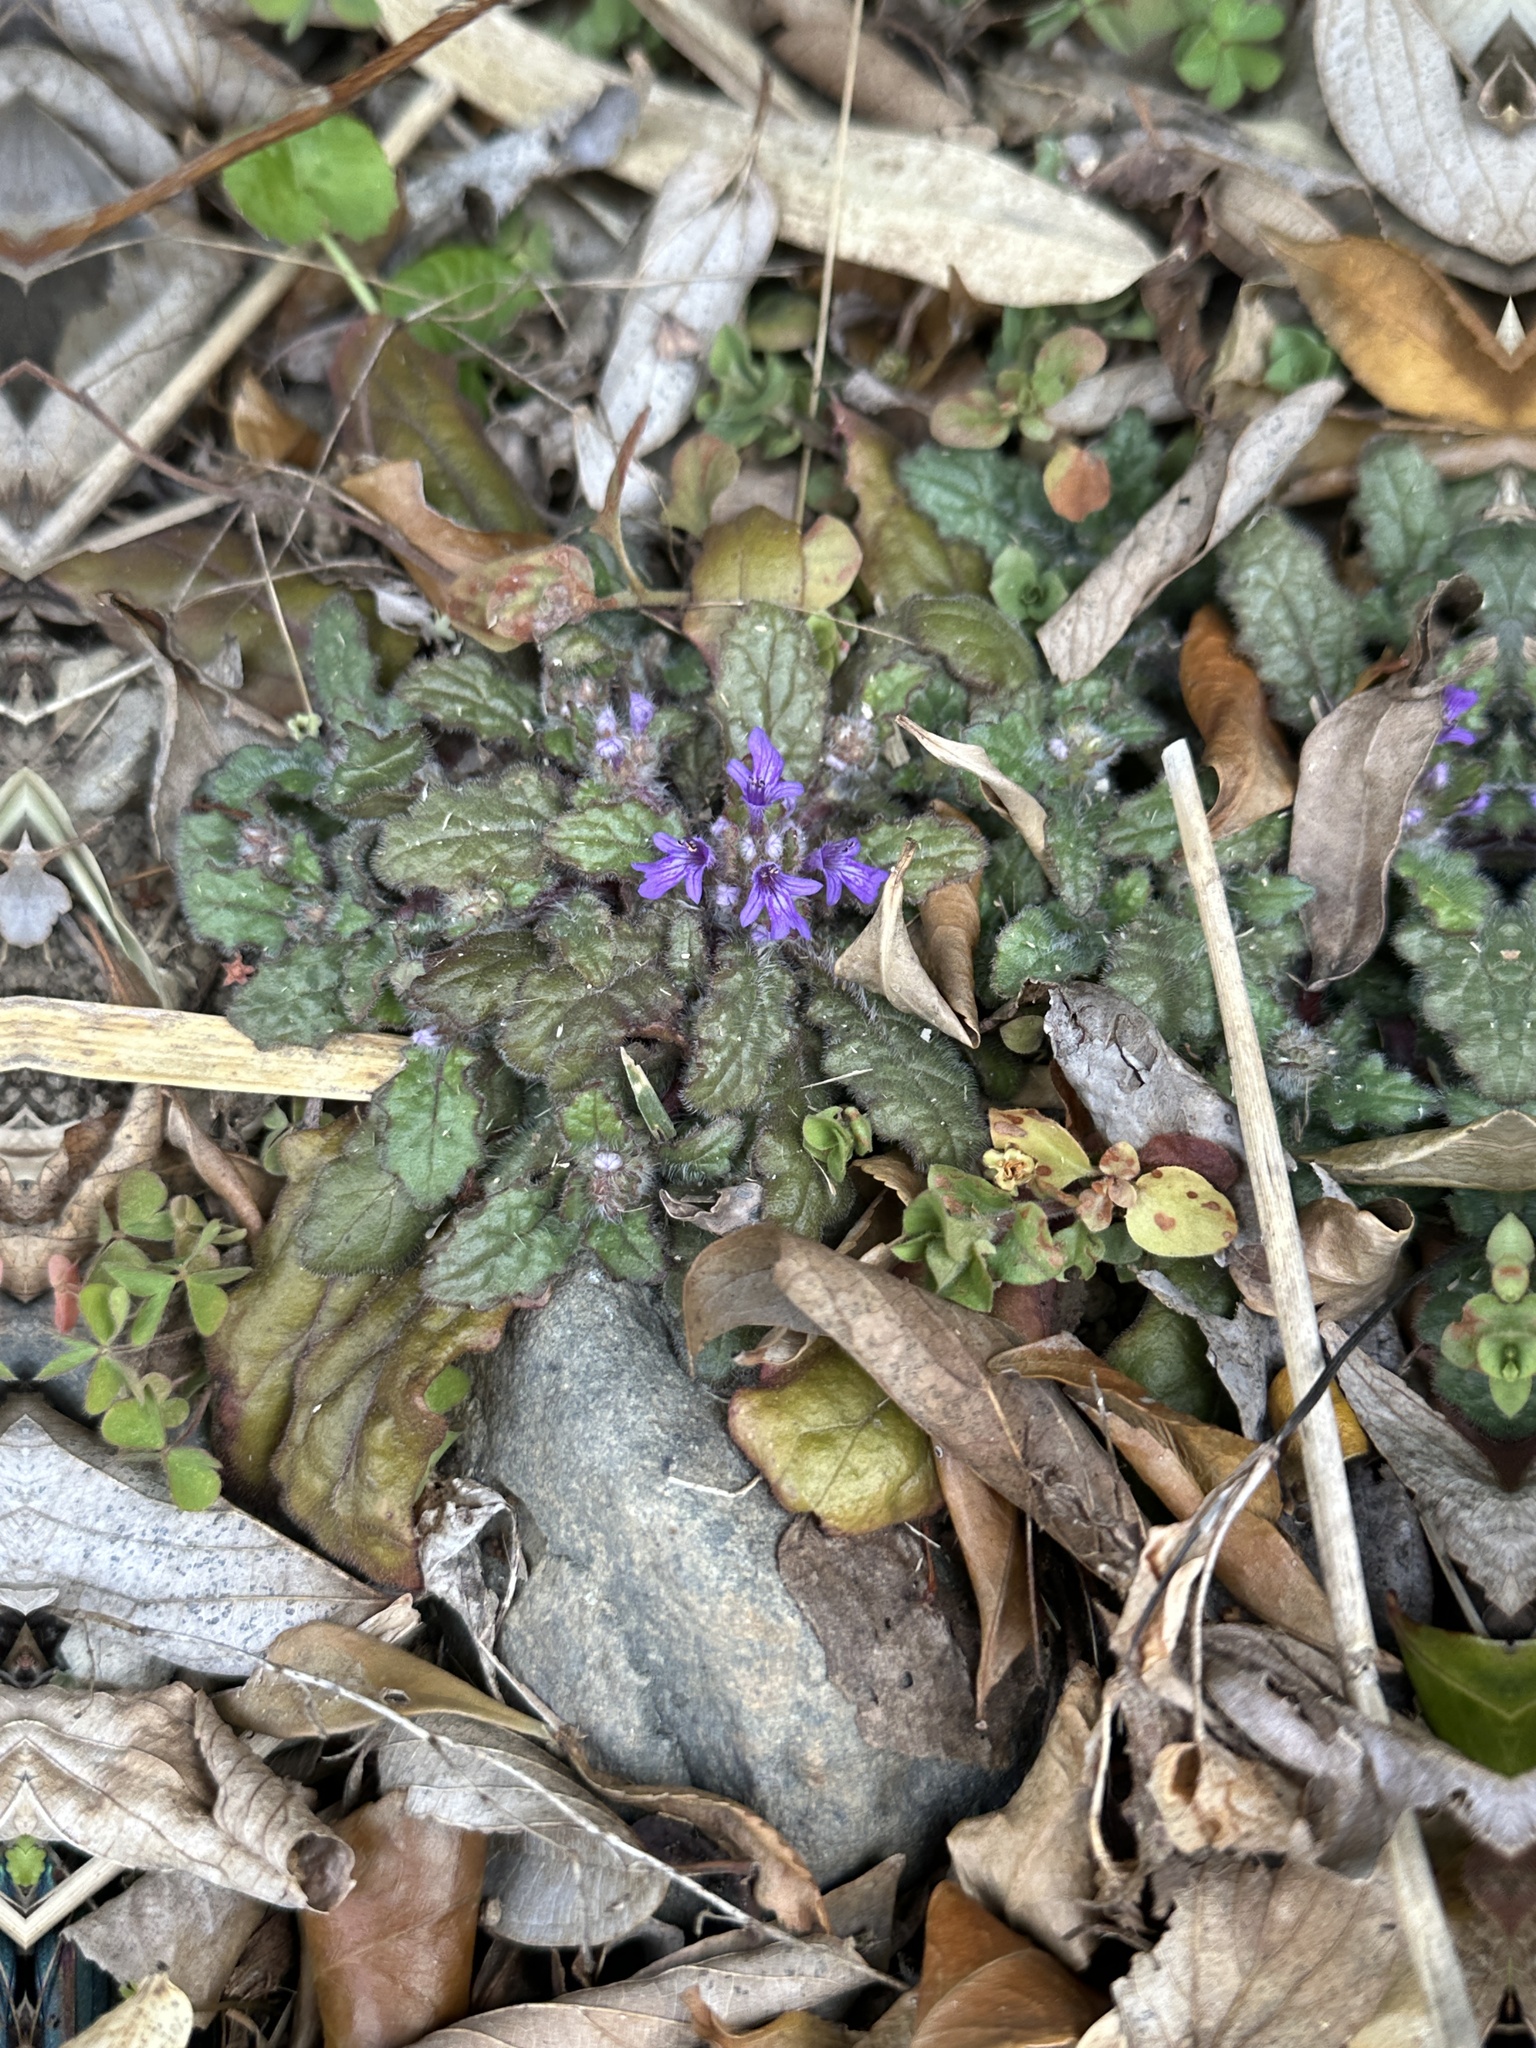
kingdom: Plantae
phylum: Tracheophyta
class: Magnoliopsida
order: Lamiales
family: Lamiaceae
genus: Ajuga
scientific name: Ajuga decumbens
